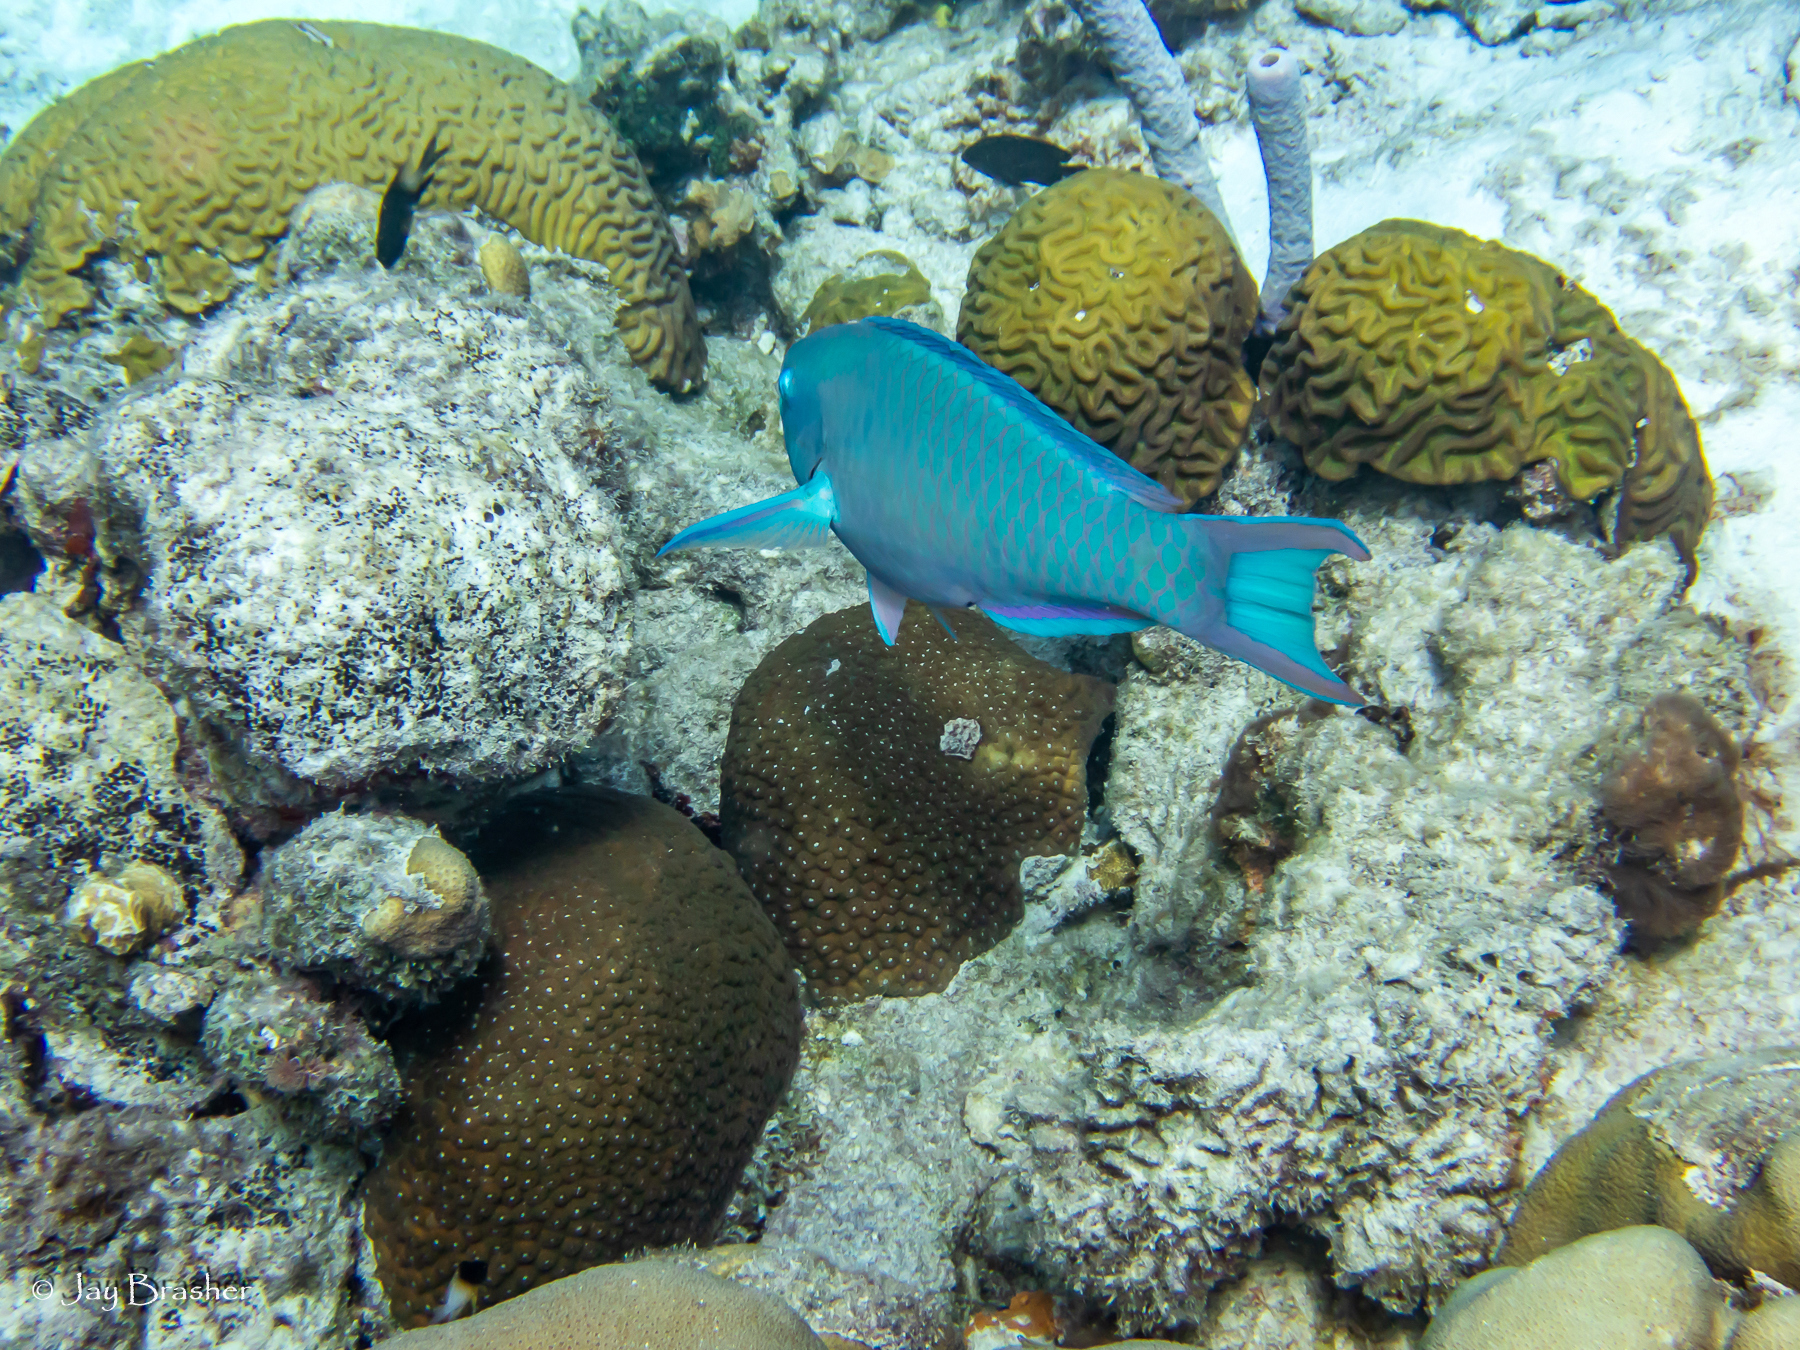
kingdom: Animalia
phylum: Chordata
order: Perciformes
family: Scaridae
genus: Scarus
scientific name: Scarus vetula
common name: Queen parrotfish
